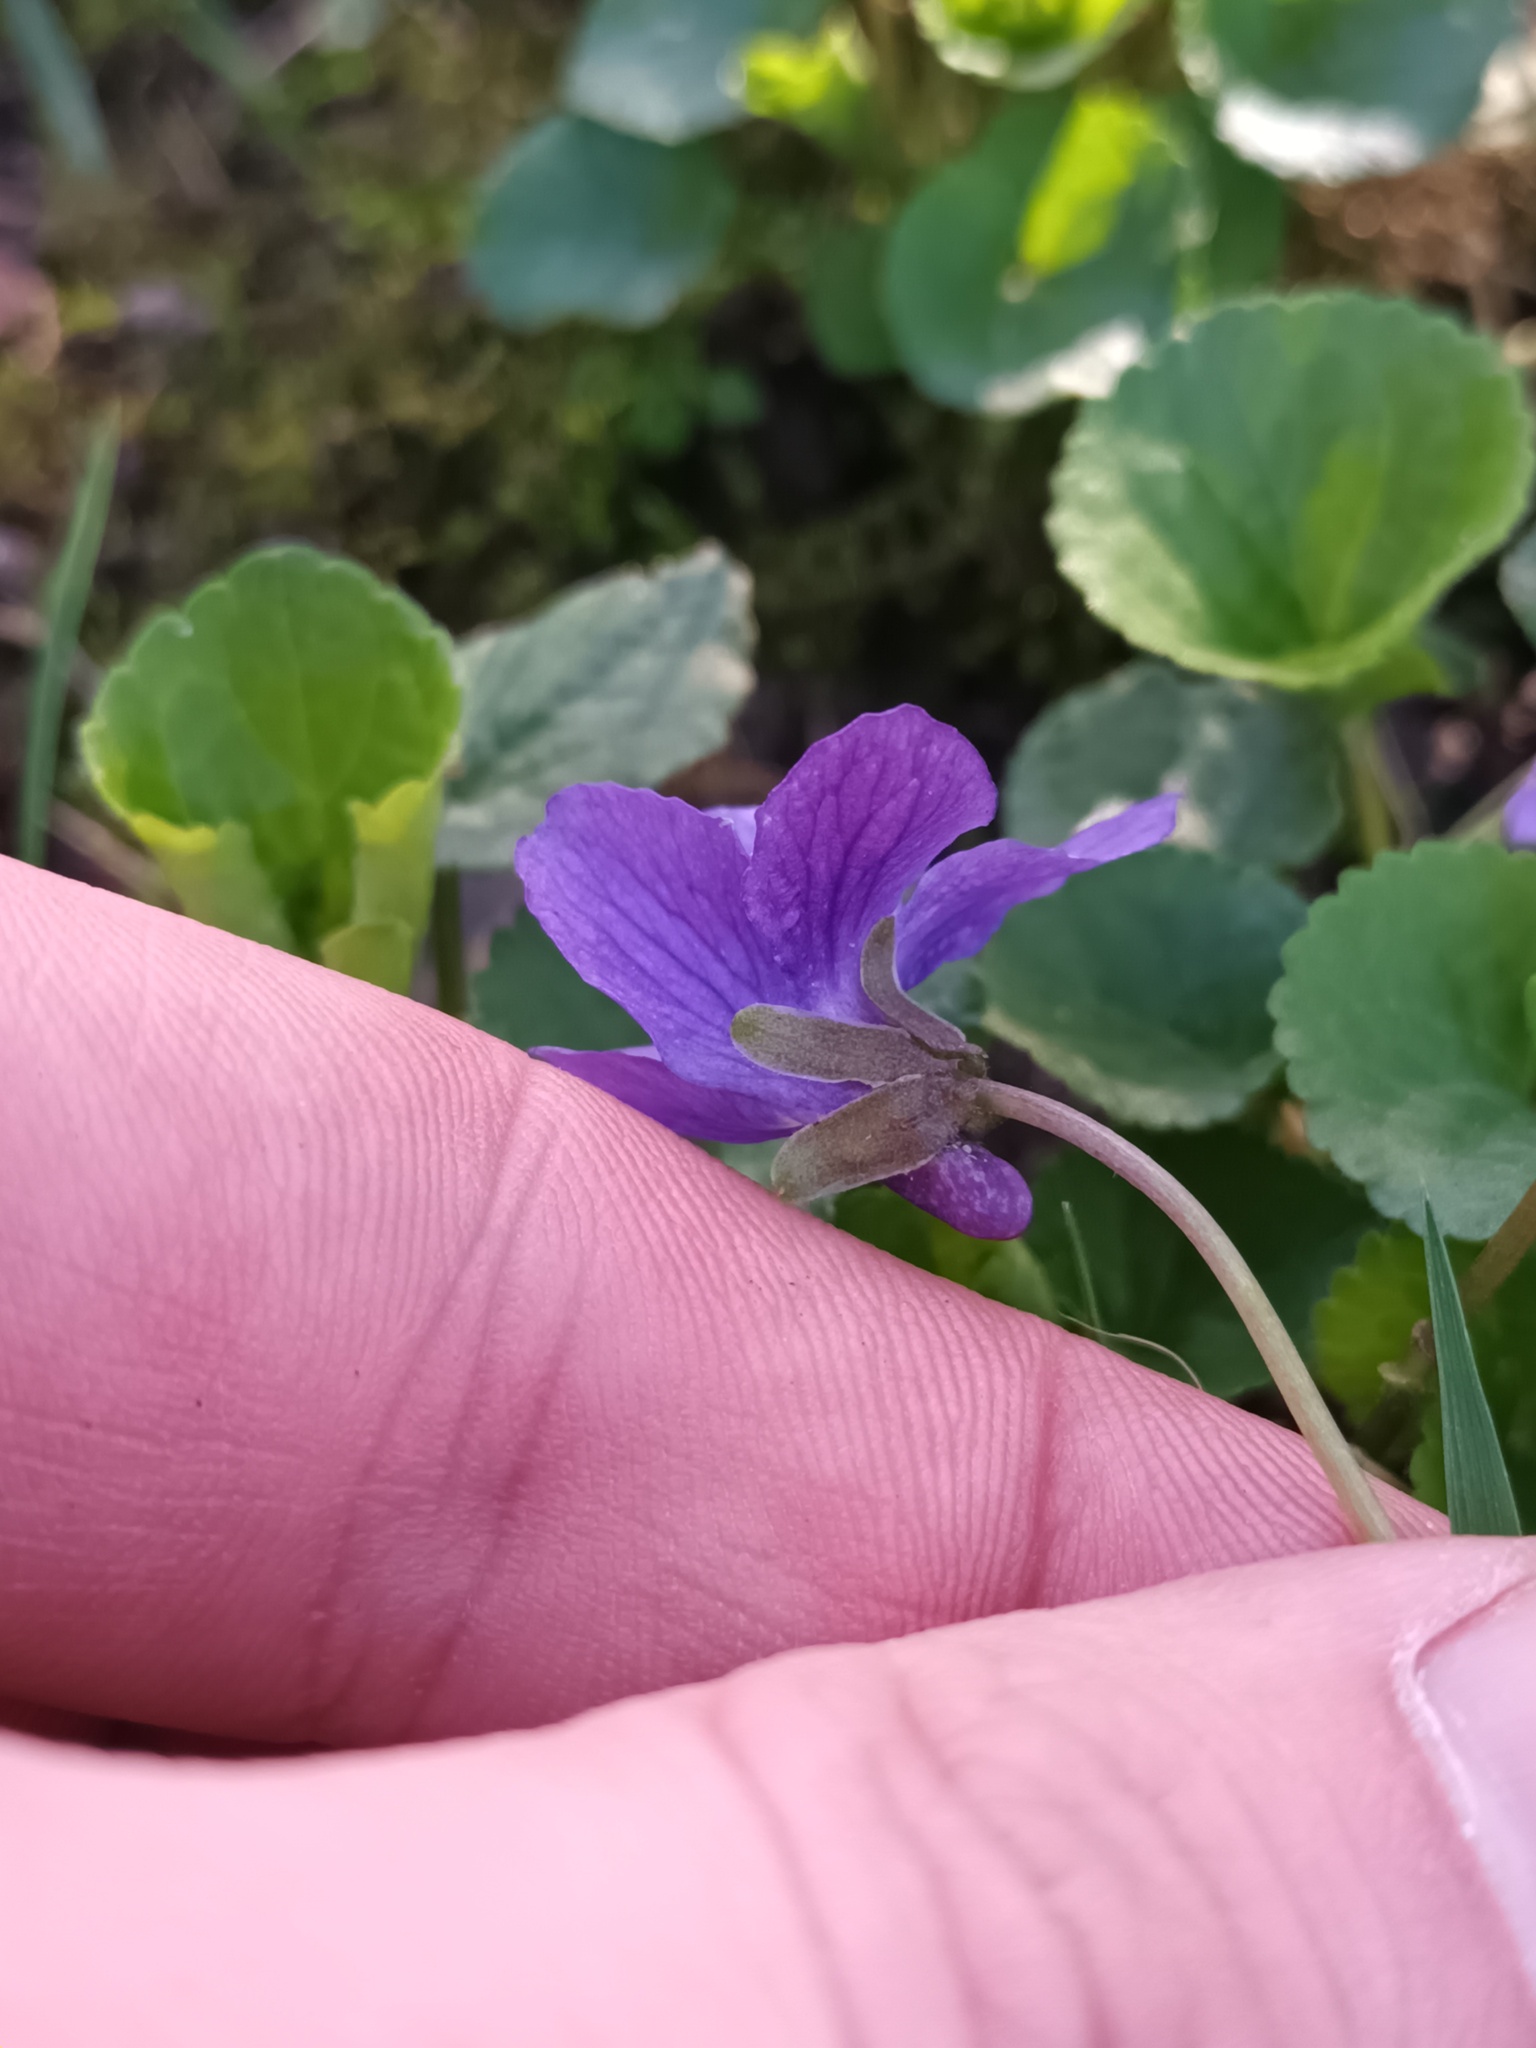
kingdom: Plantae
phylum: Tracheophyta
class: Magnoliopsida
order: Malpighiales
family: Violaceae
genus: Viola
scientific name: Viola odorata
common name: Sweet violet
